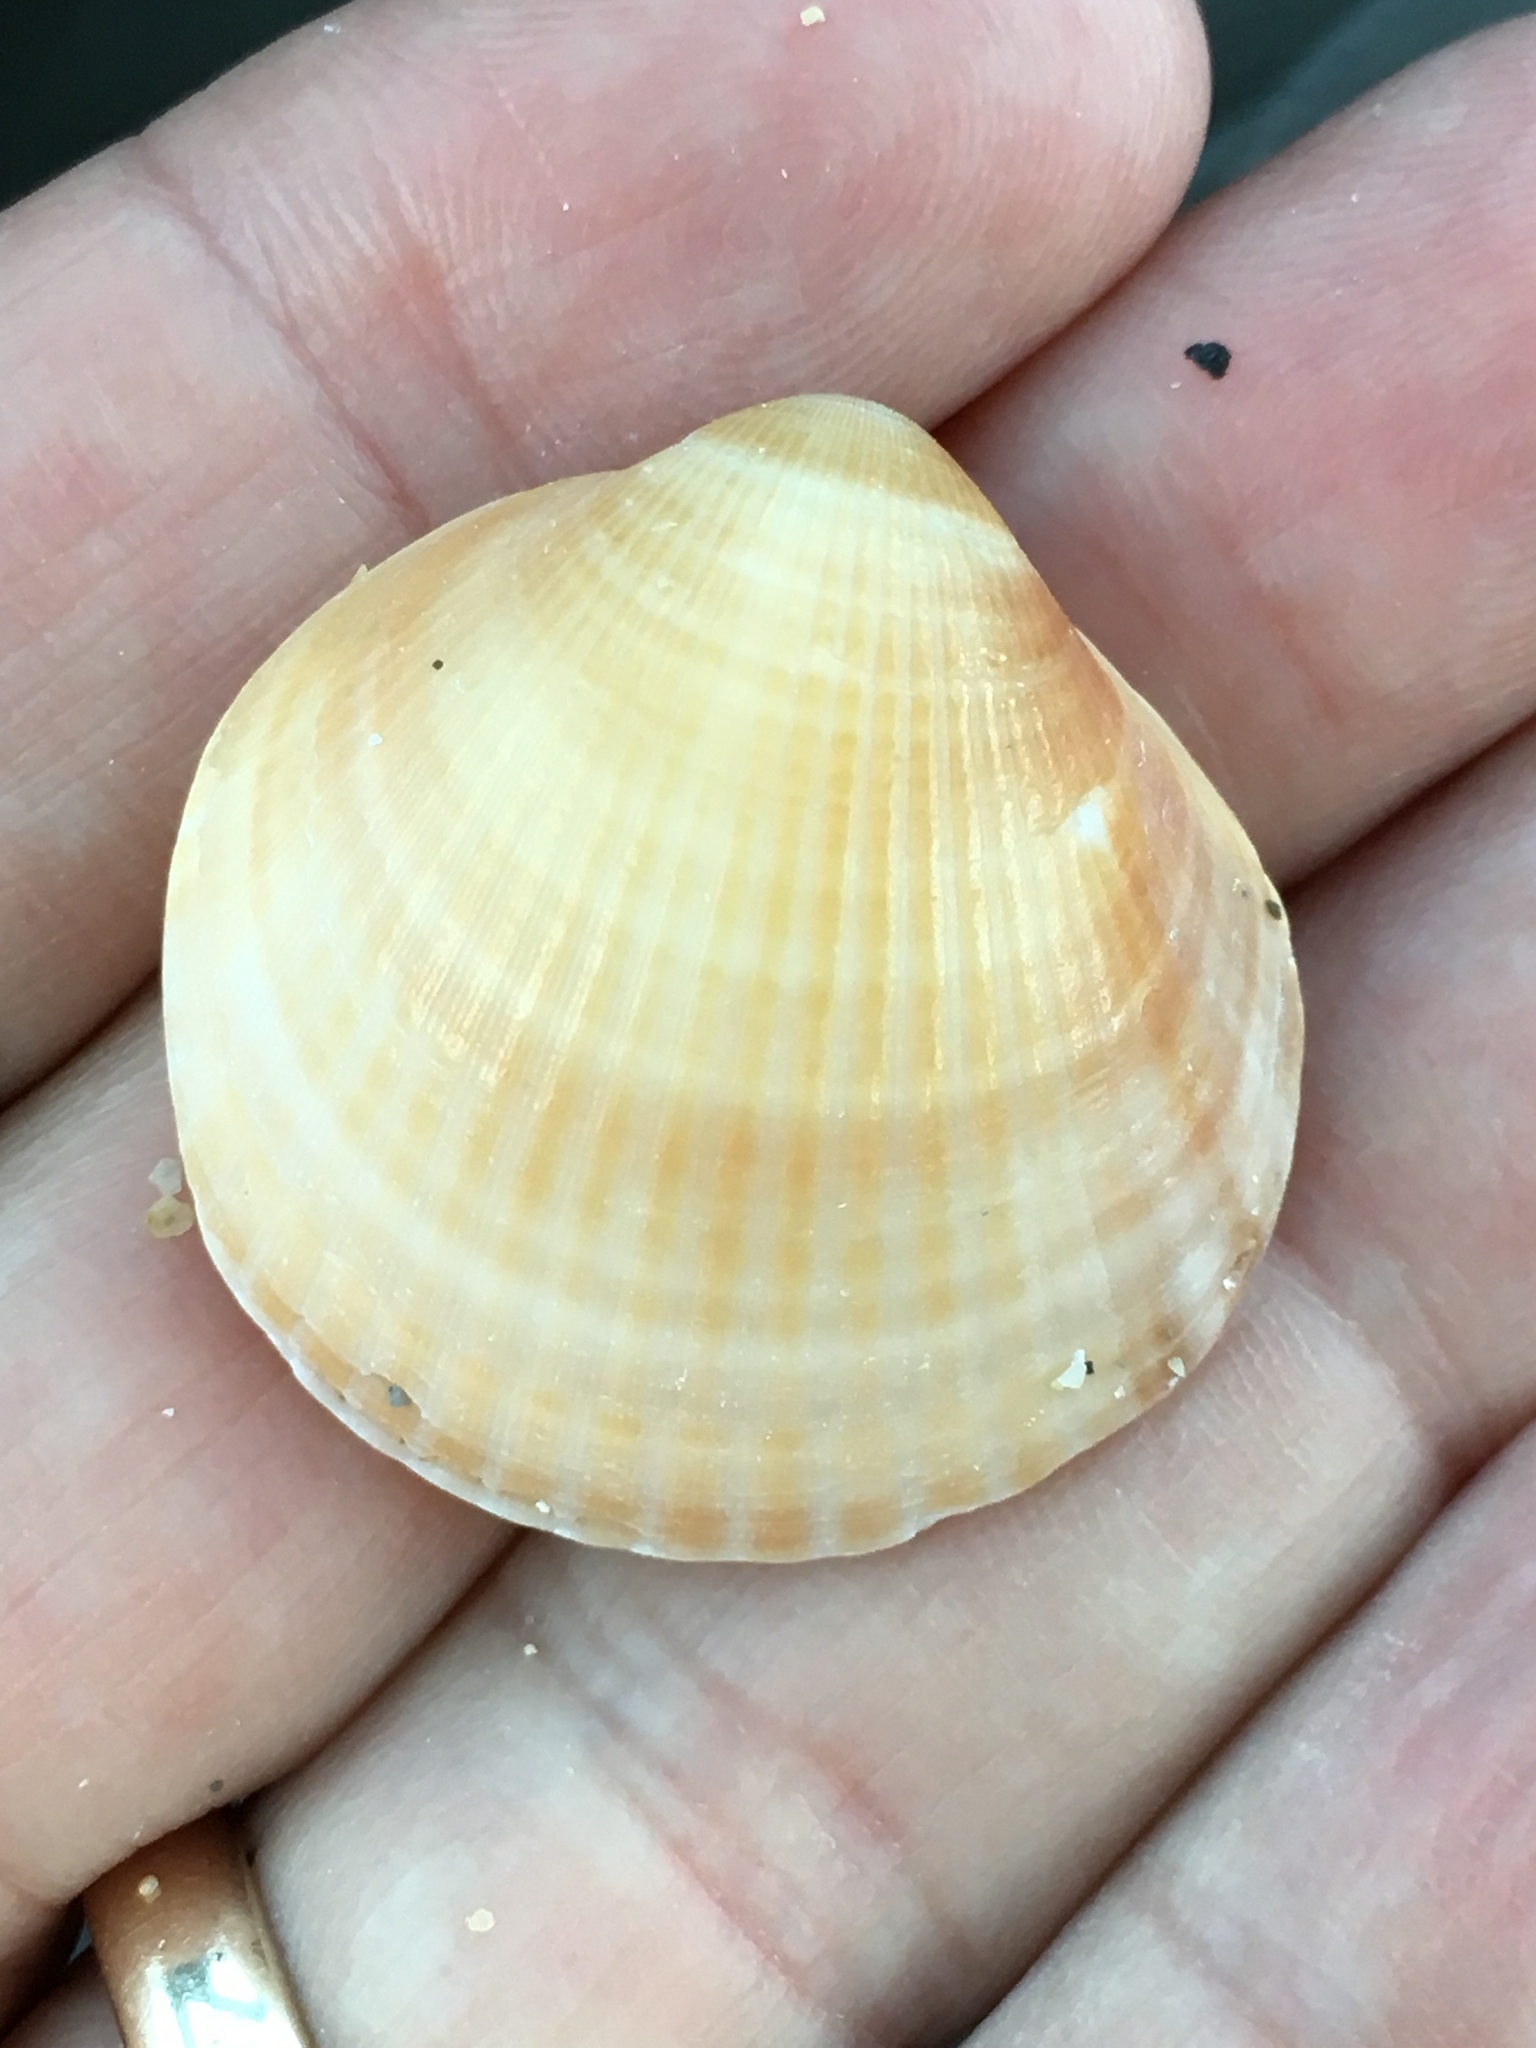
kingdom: Animalia
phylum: Mollusca
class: Bivalvia
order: Arcida
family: Glycymerididae
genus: Glycymeris
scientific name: Glycymeris spectralis
